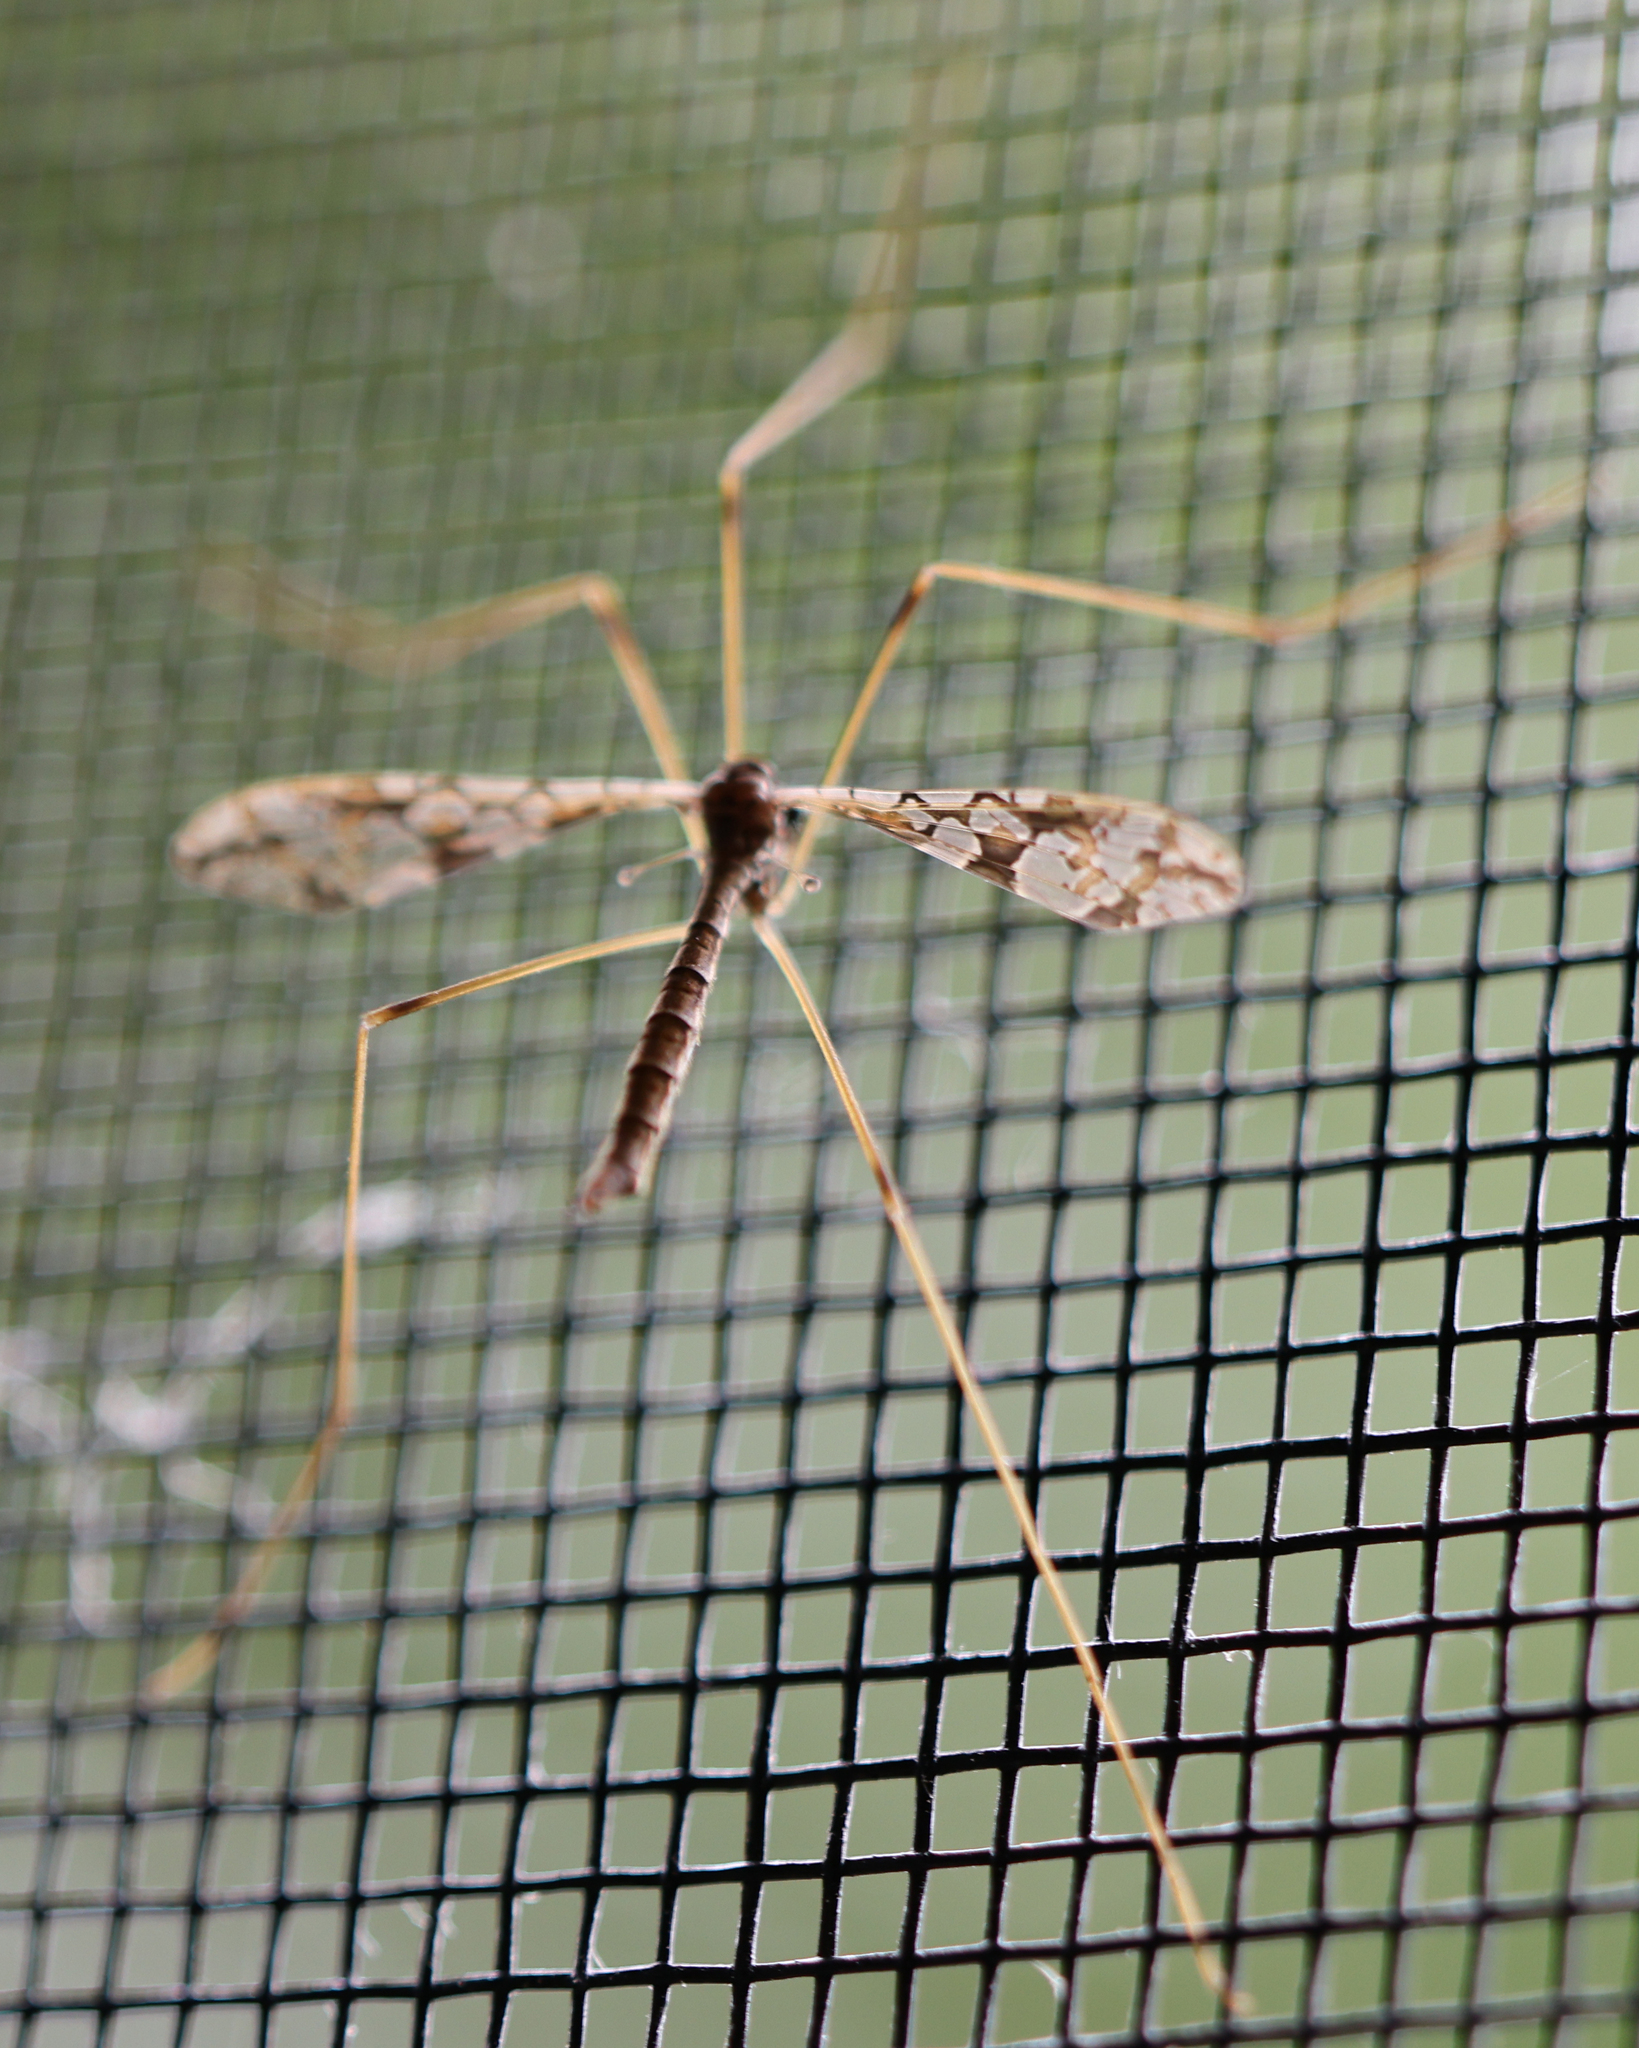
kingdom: Animalia
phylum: Arthropoda
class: Insecta
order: Diptera
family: Limoniidae
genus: Epiphragma
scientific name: Epiphragma solatrix
